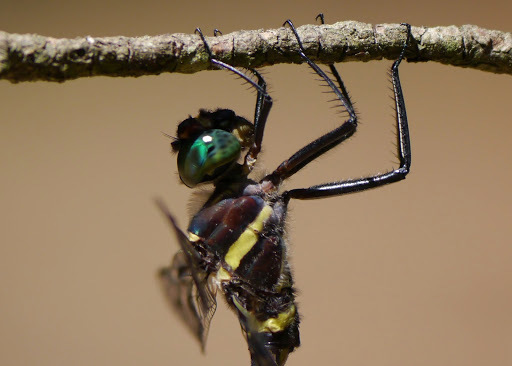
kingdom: Animalia
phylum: Arthropoda
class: Insecta
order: Odonata
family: Macromiidae
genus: Macromia
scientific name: Macromia illinoiensis
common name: Swift river cruiser
